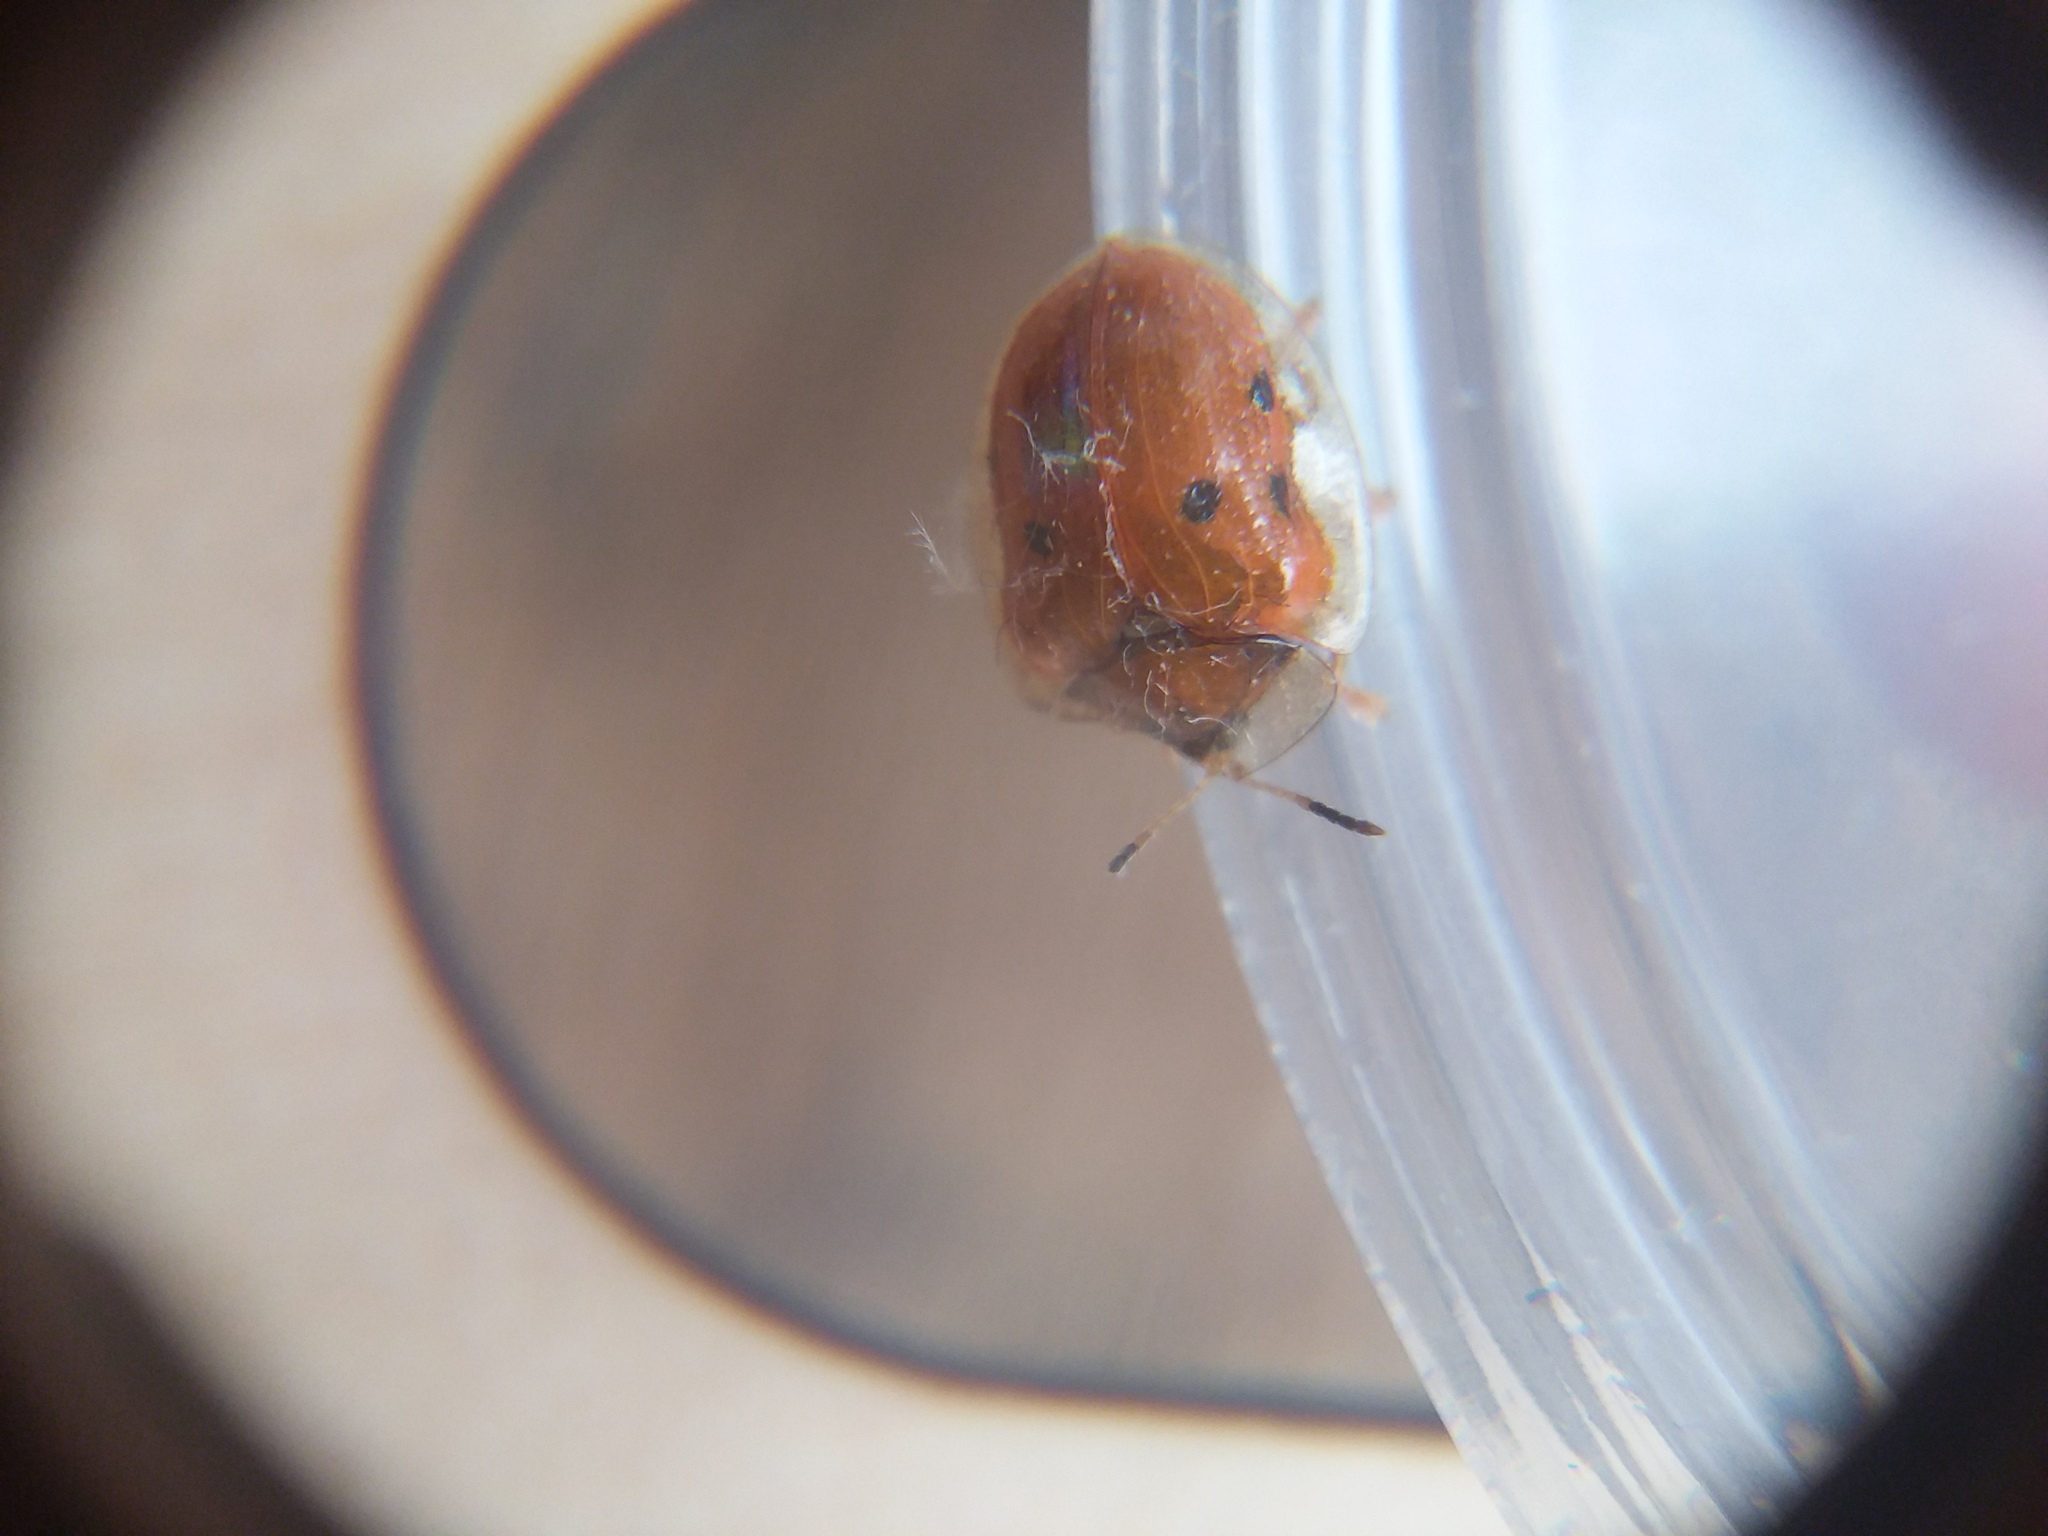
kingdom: Animalia
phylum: Arthropoda
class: Insecta
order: Coleoptera
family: Chrysomelidae
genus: Charidotella
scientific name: Charidotella sexpunctata
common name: Golden tortoise beetle
